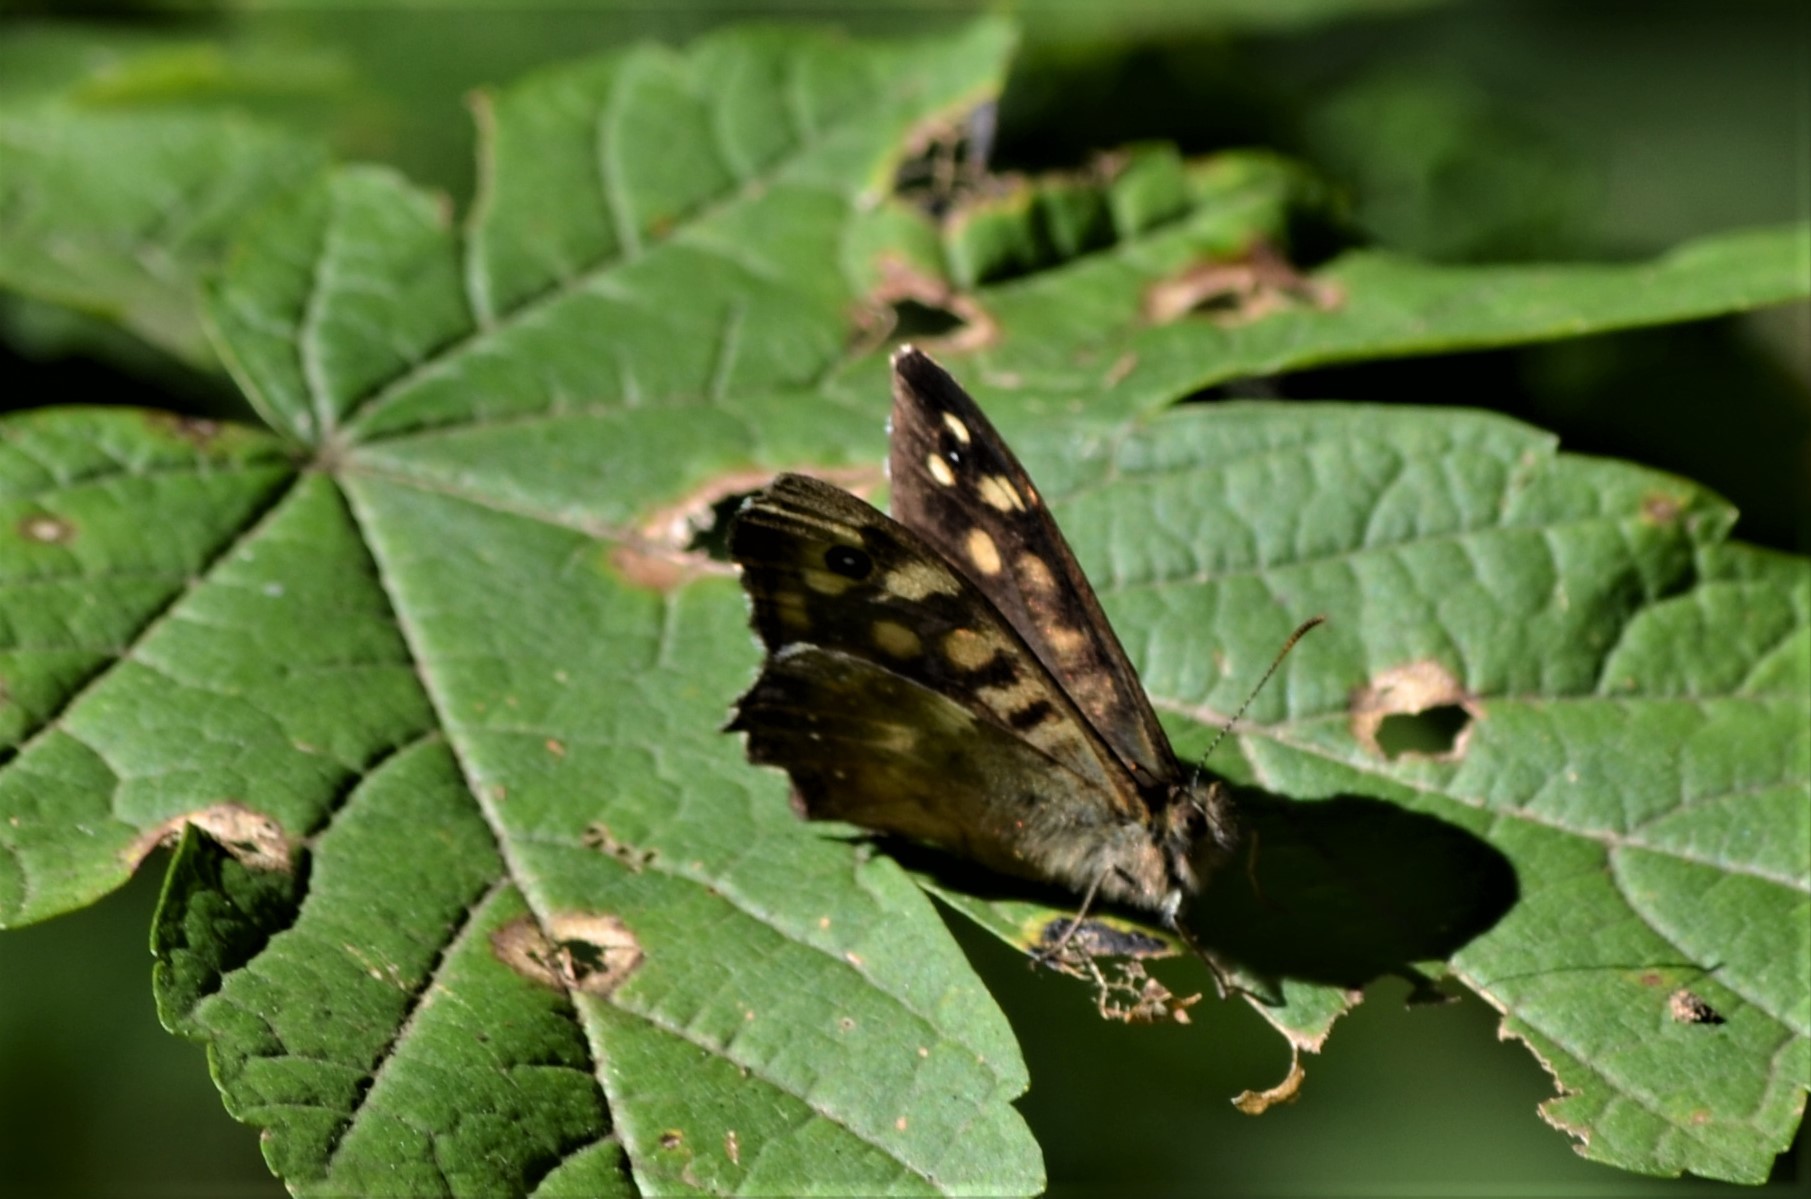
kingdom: Animalia
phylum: Arthropoda
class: Insecta
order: Lepidoptera
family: Nymphalidae
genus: Pararge
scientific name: Pararge aegeria
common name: Speckled wood
